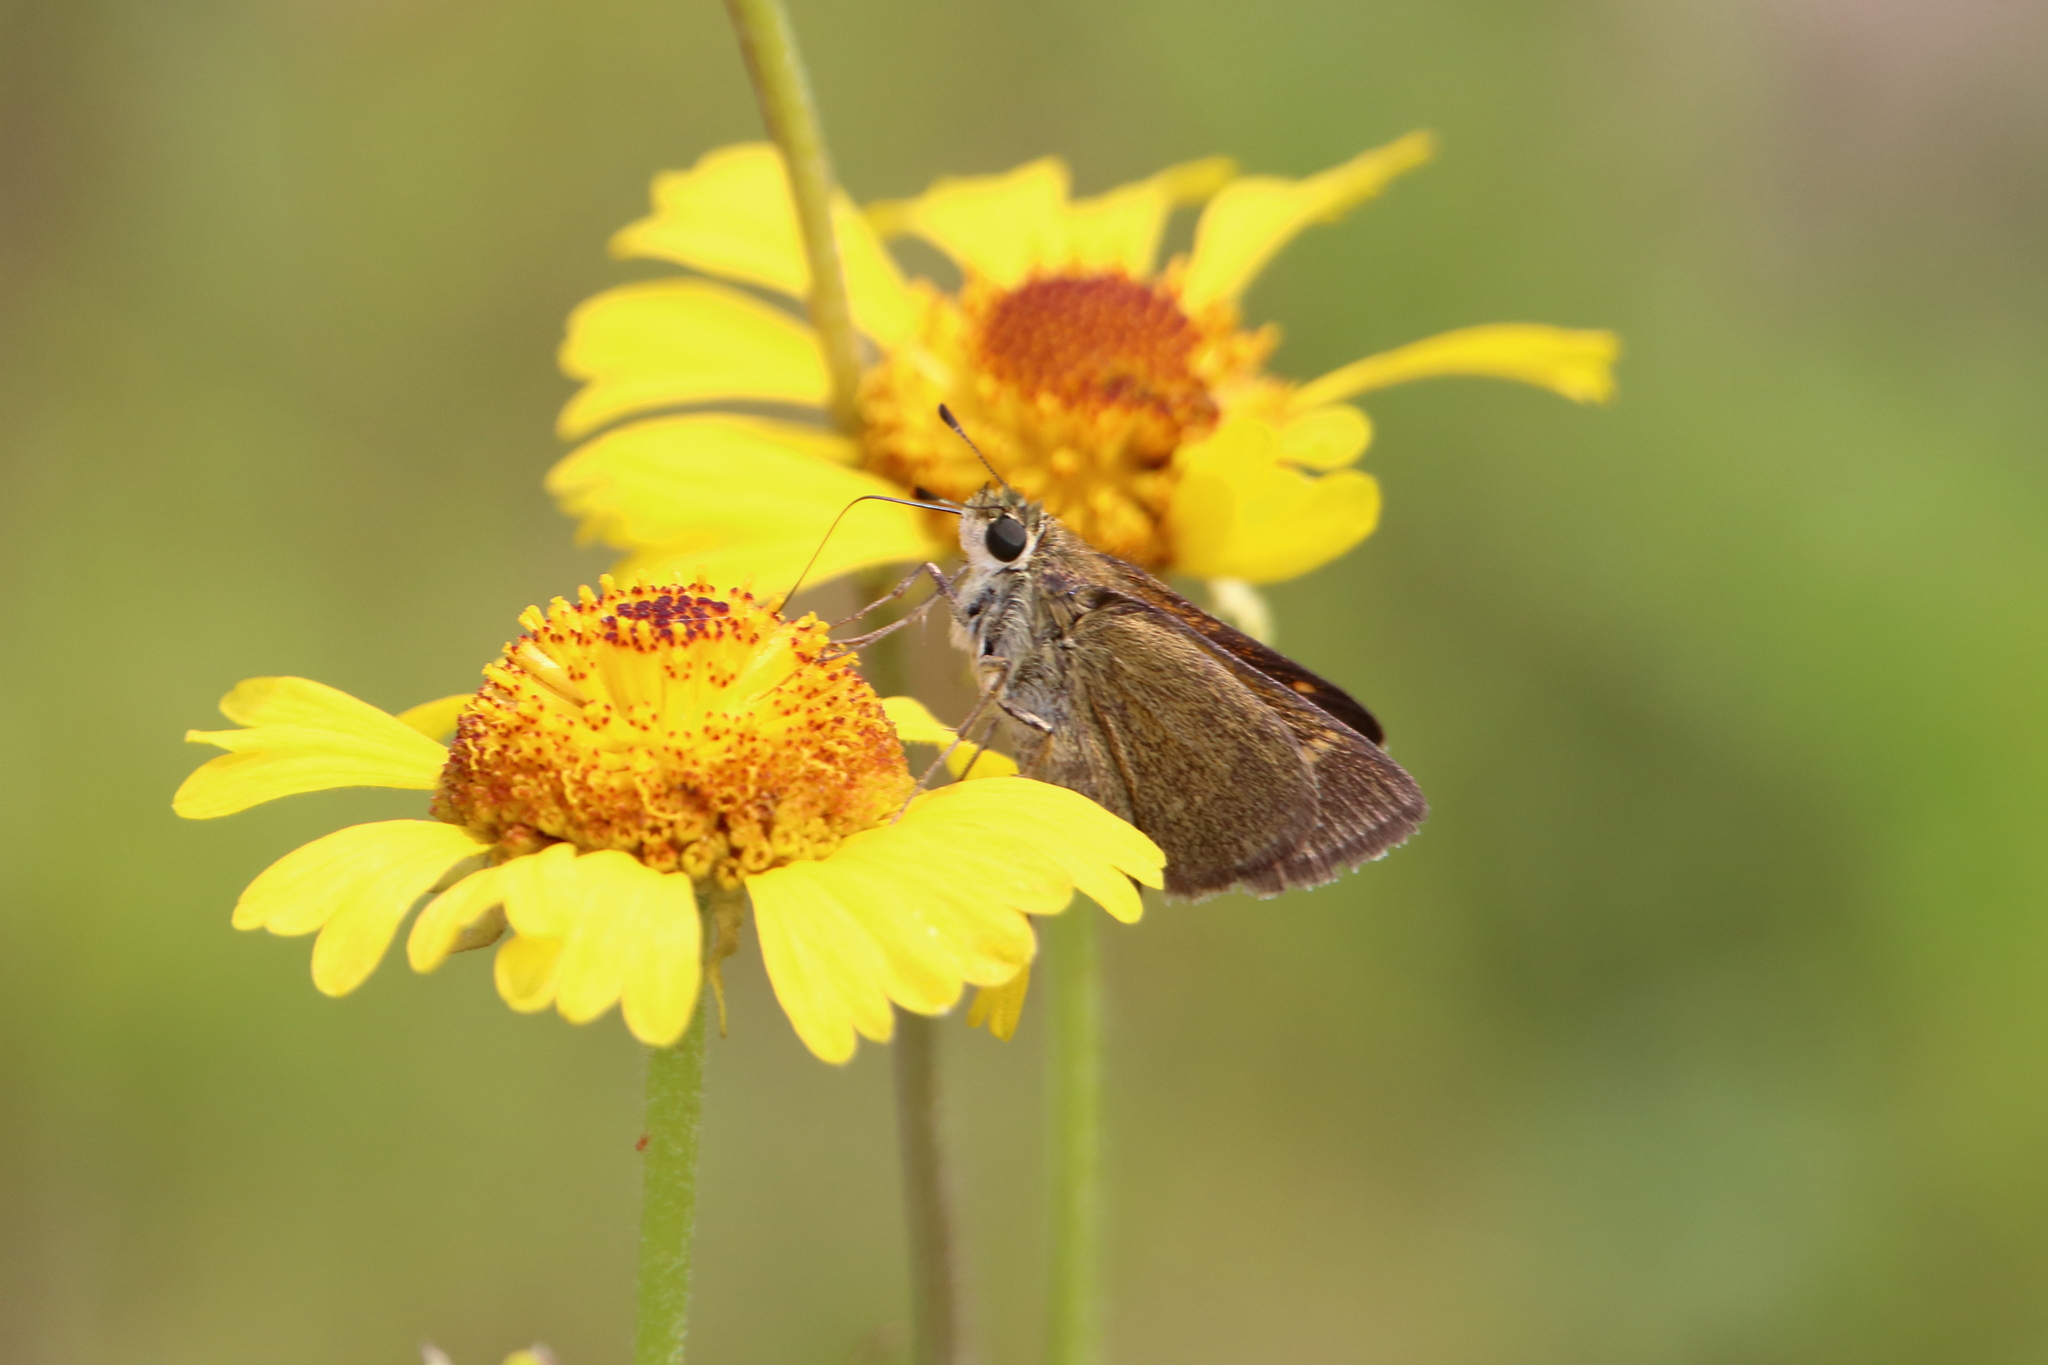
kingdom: Animalia
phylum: Arthropoda
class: Insecta
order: Lepidoptera
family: Hesperiidae
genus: Polites
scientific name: Polites themistocles
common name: Tawny-edged skipper
